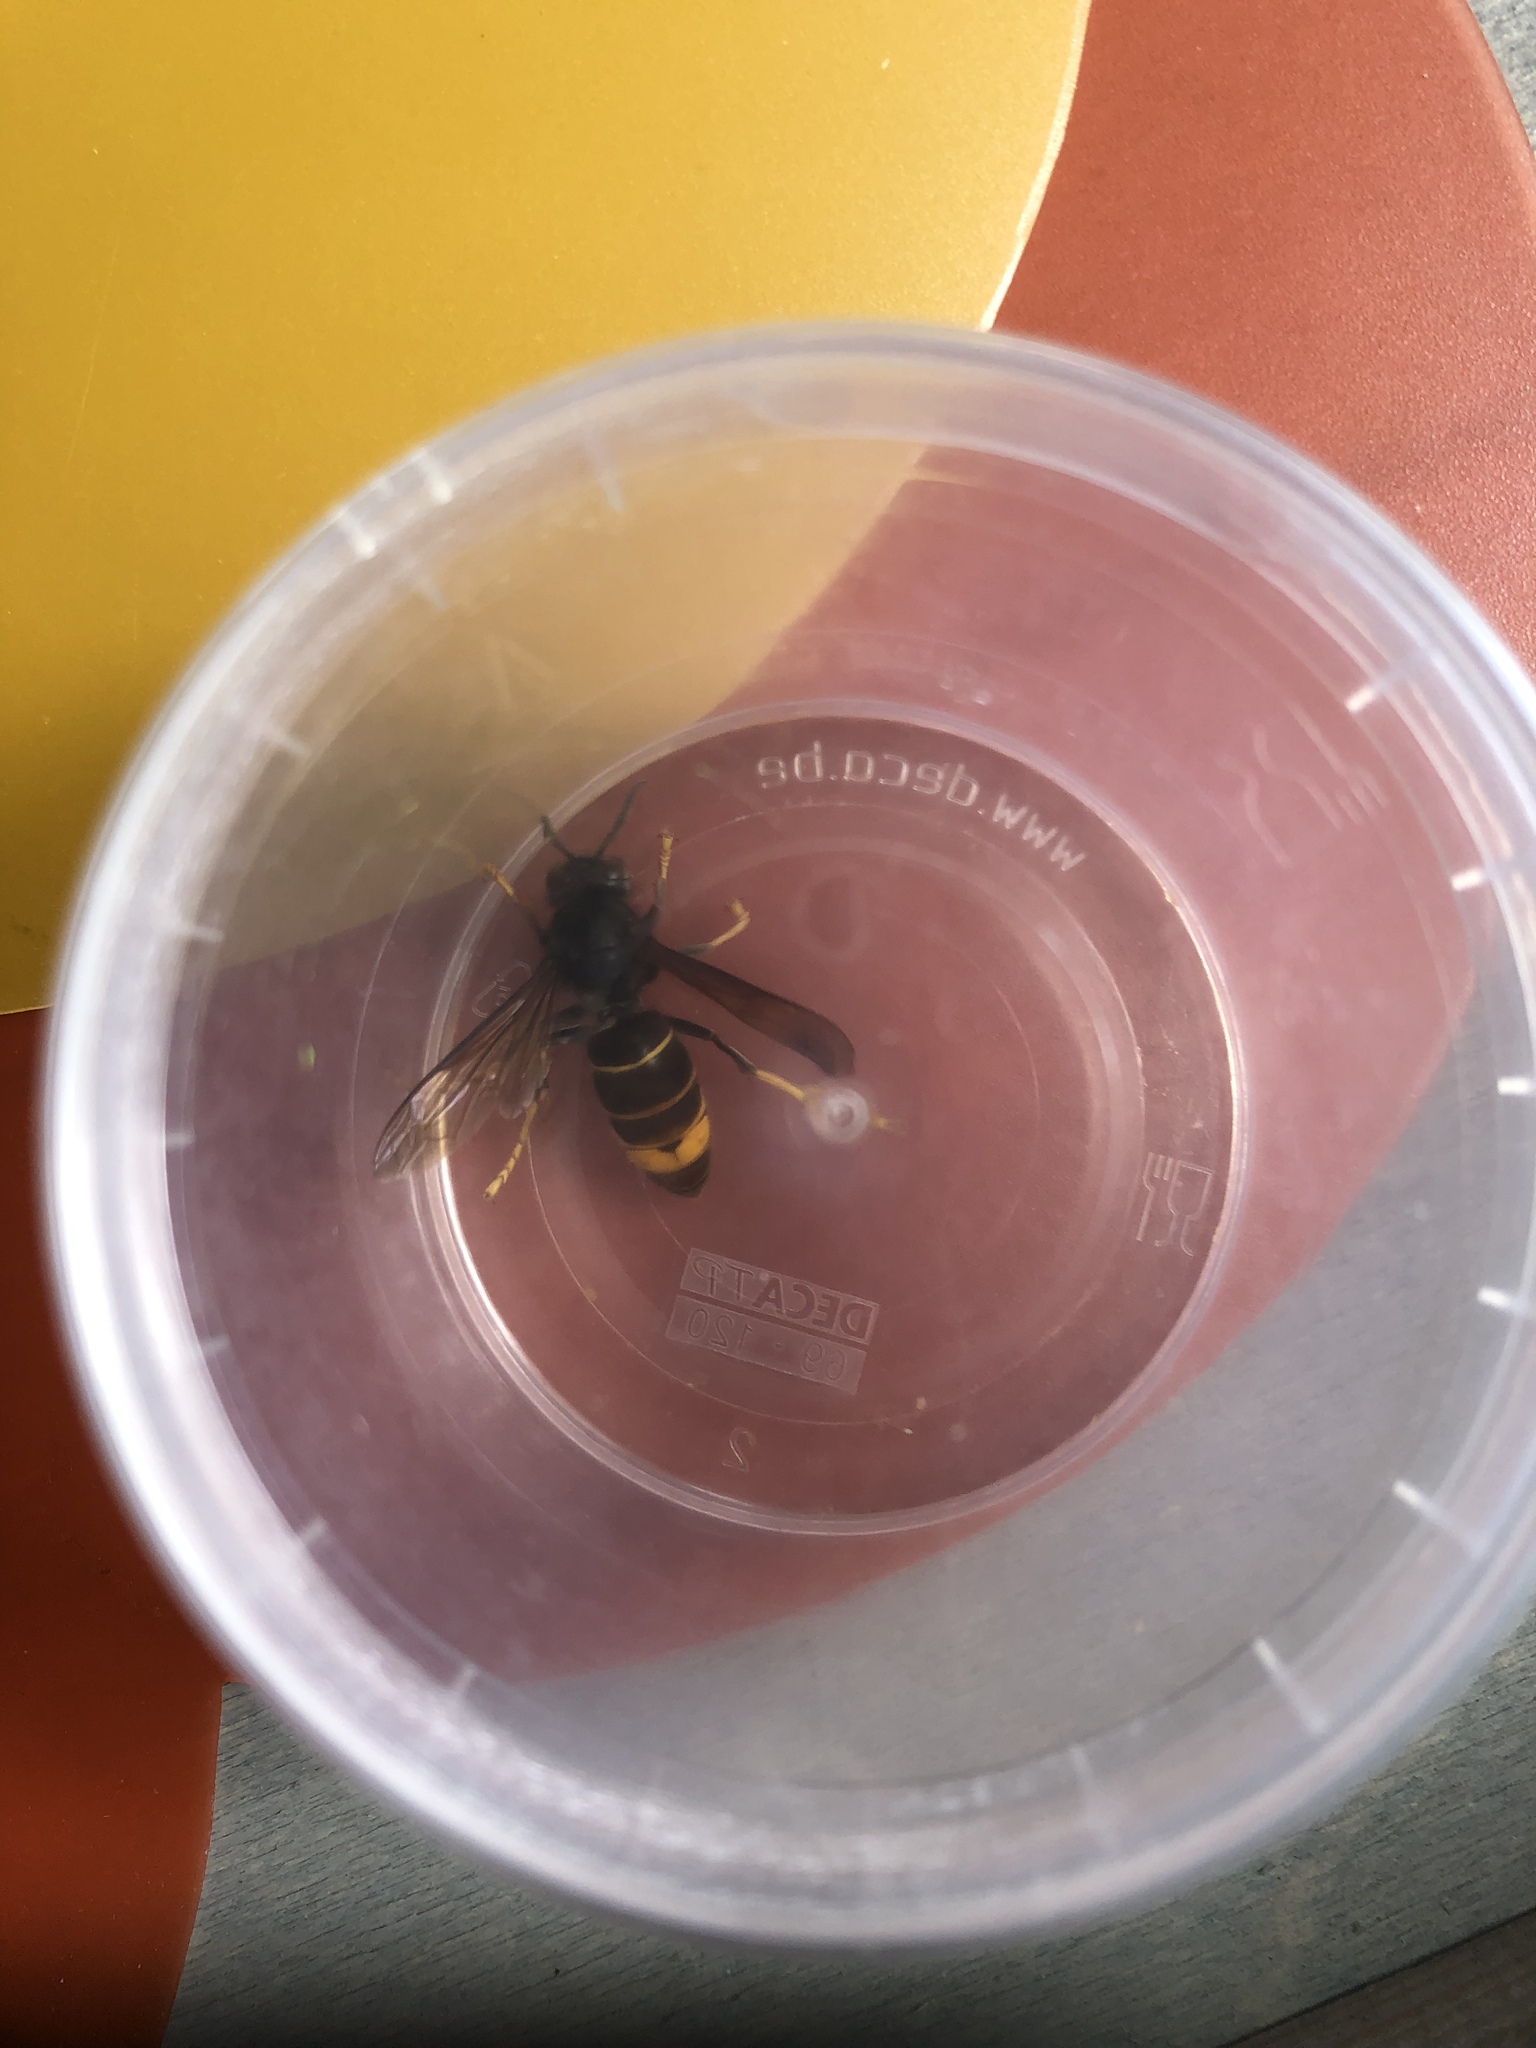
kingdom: Animalia
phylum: Arthropoda
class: Insecta
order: Hymenoptera
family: Vespidae
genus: Vespa
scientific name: Vespa velutina
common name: Asian hornet
